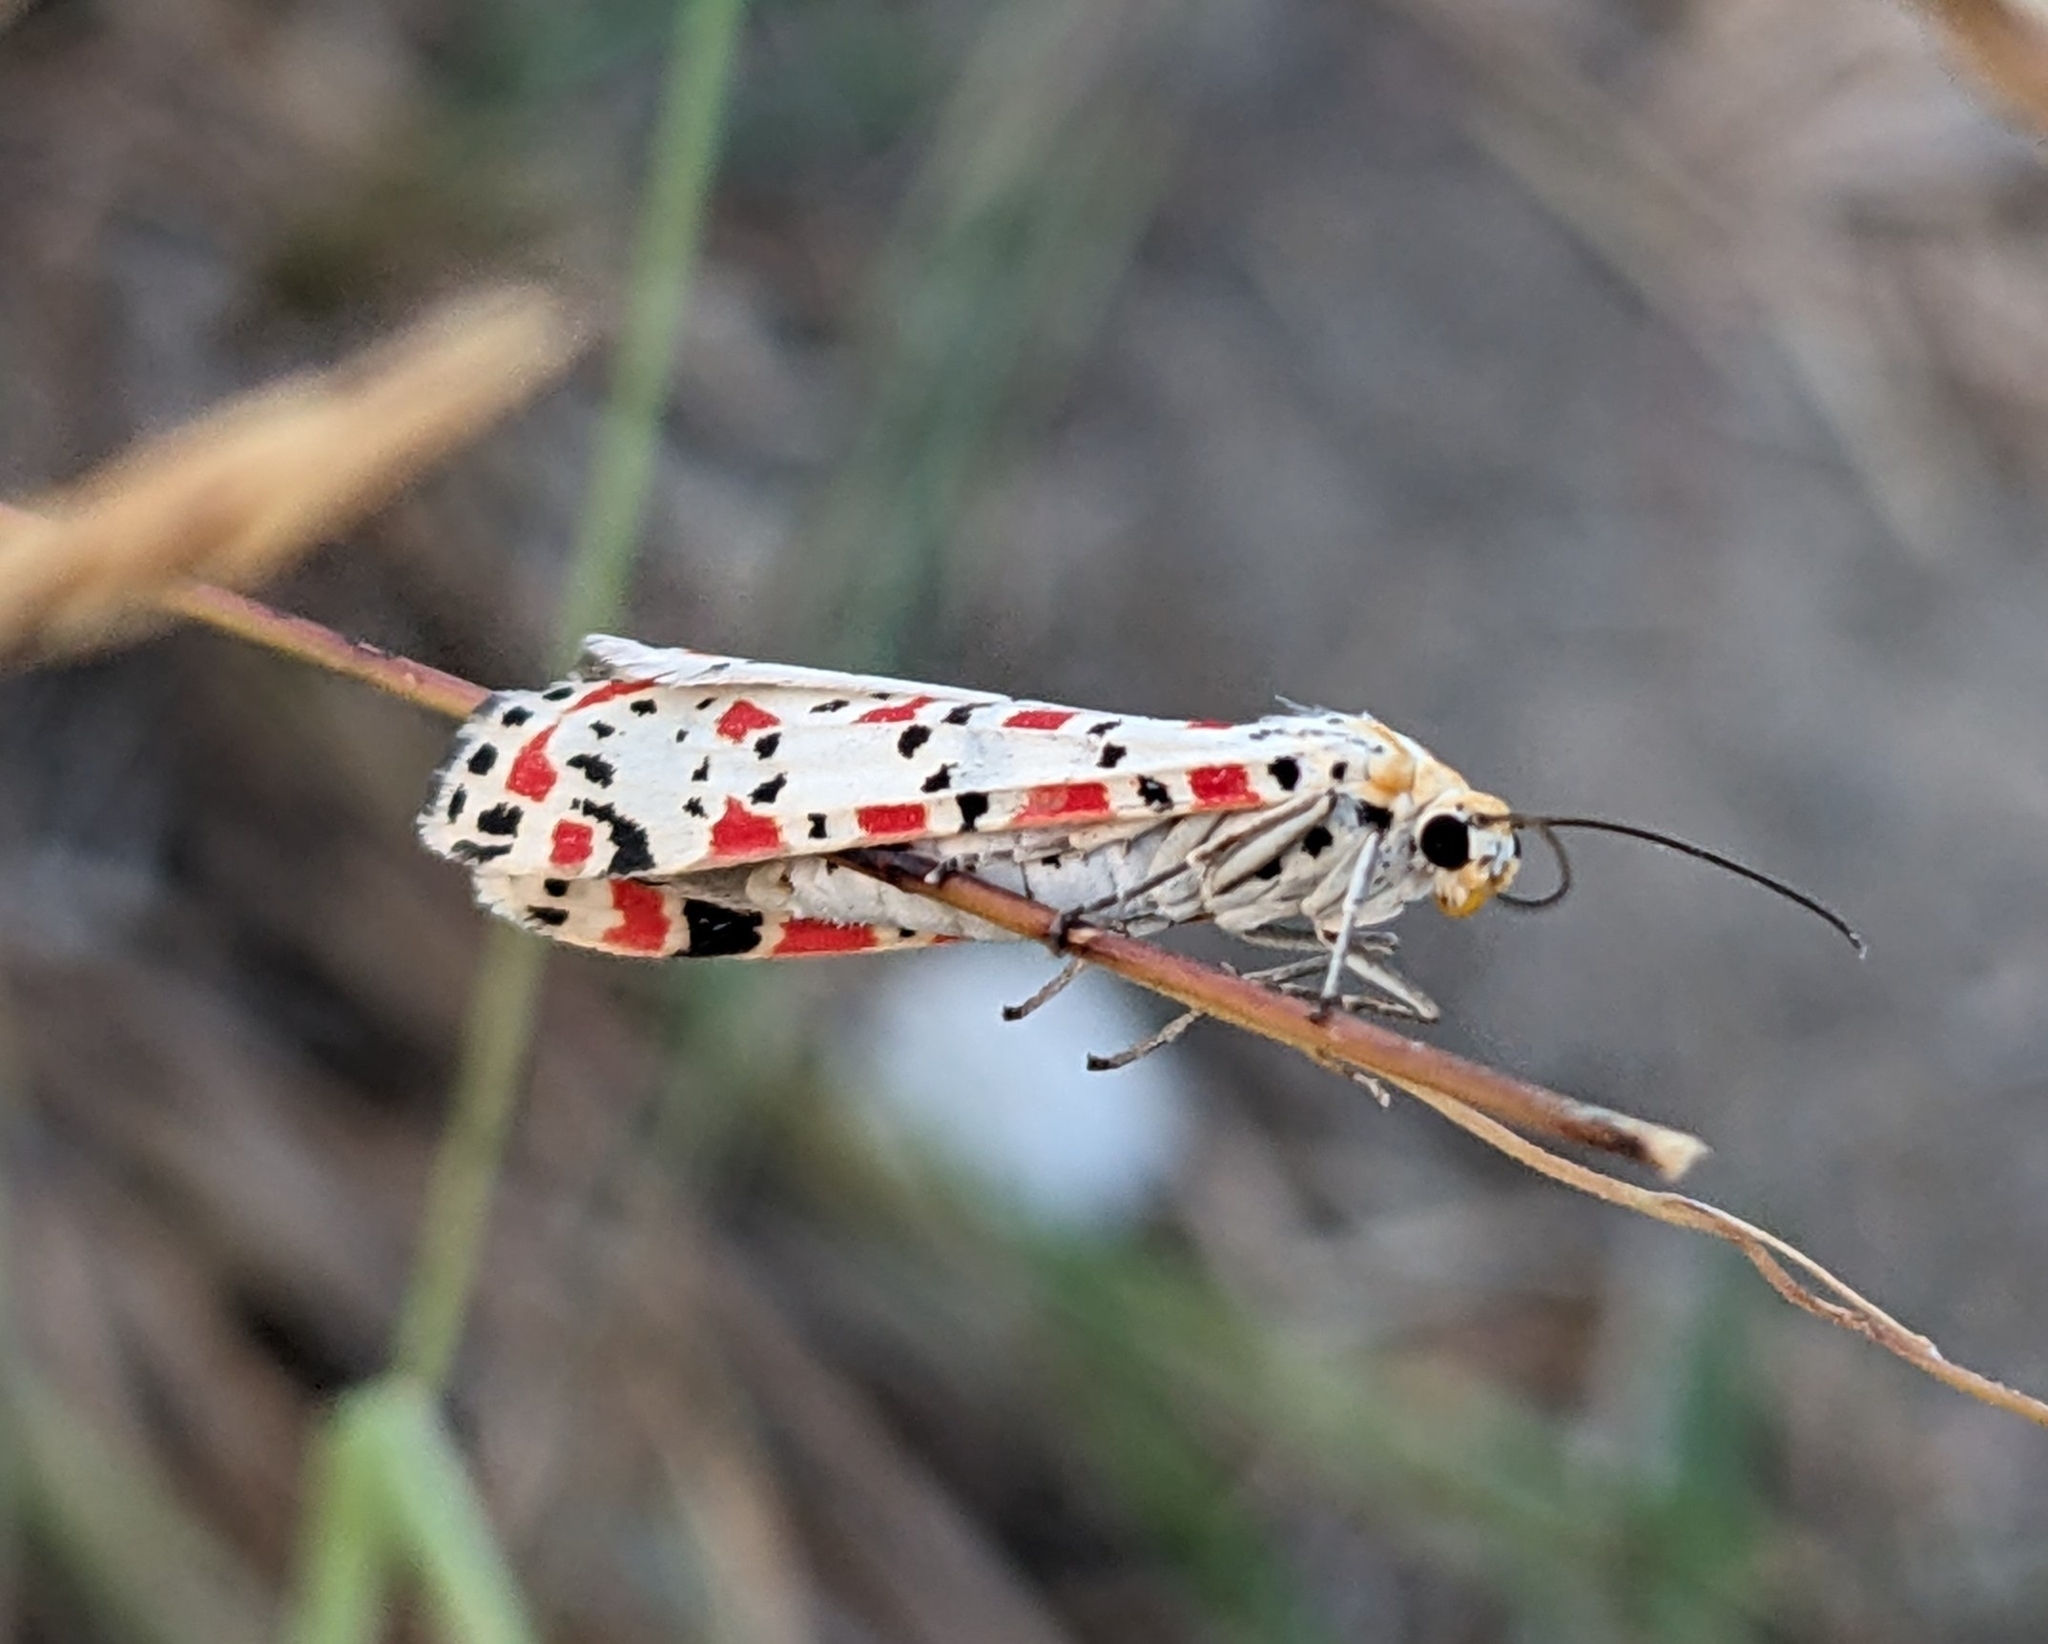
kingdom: Animalia
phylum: Arthropoda
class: Insecta
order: Lepidoptera
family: Erebidae
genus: Utetheisa
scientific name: Utetheisa pulchella
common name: Crimson speckled
